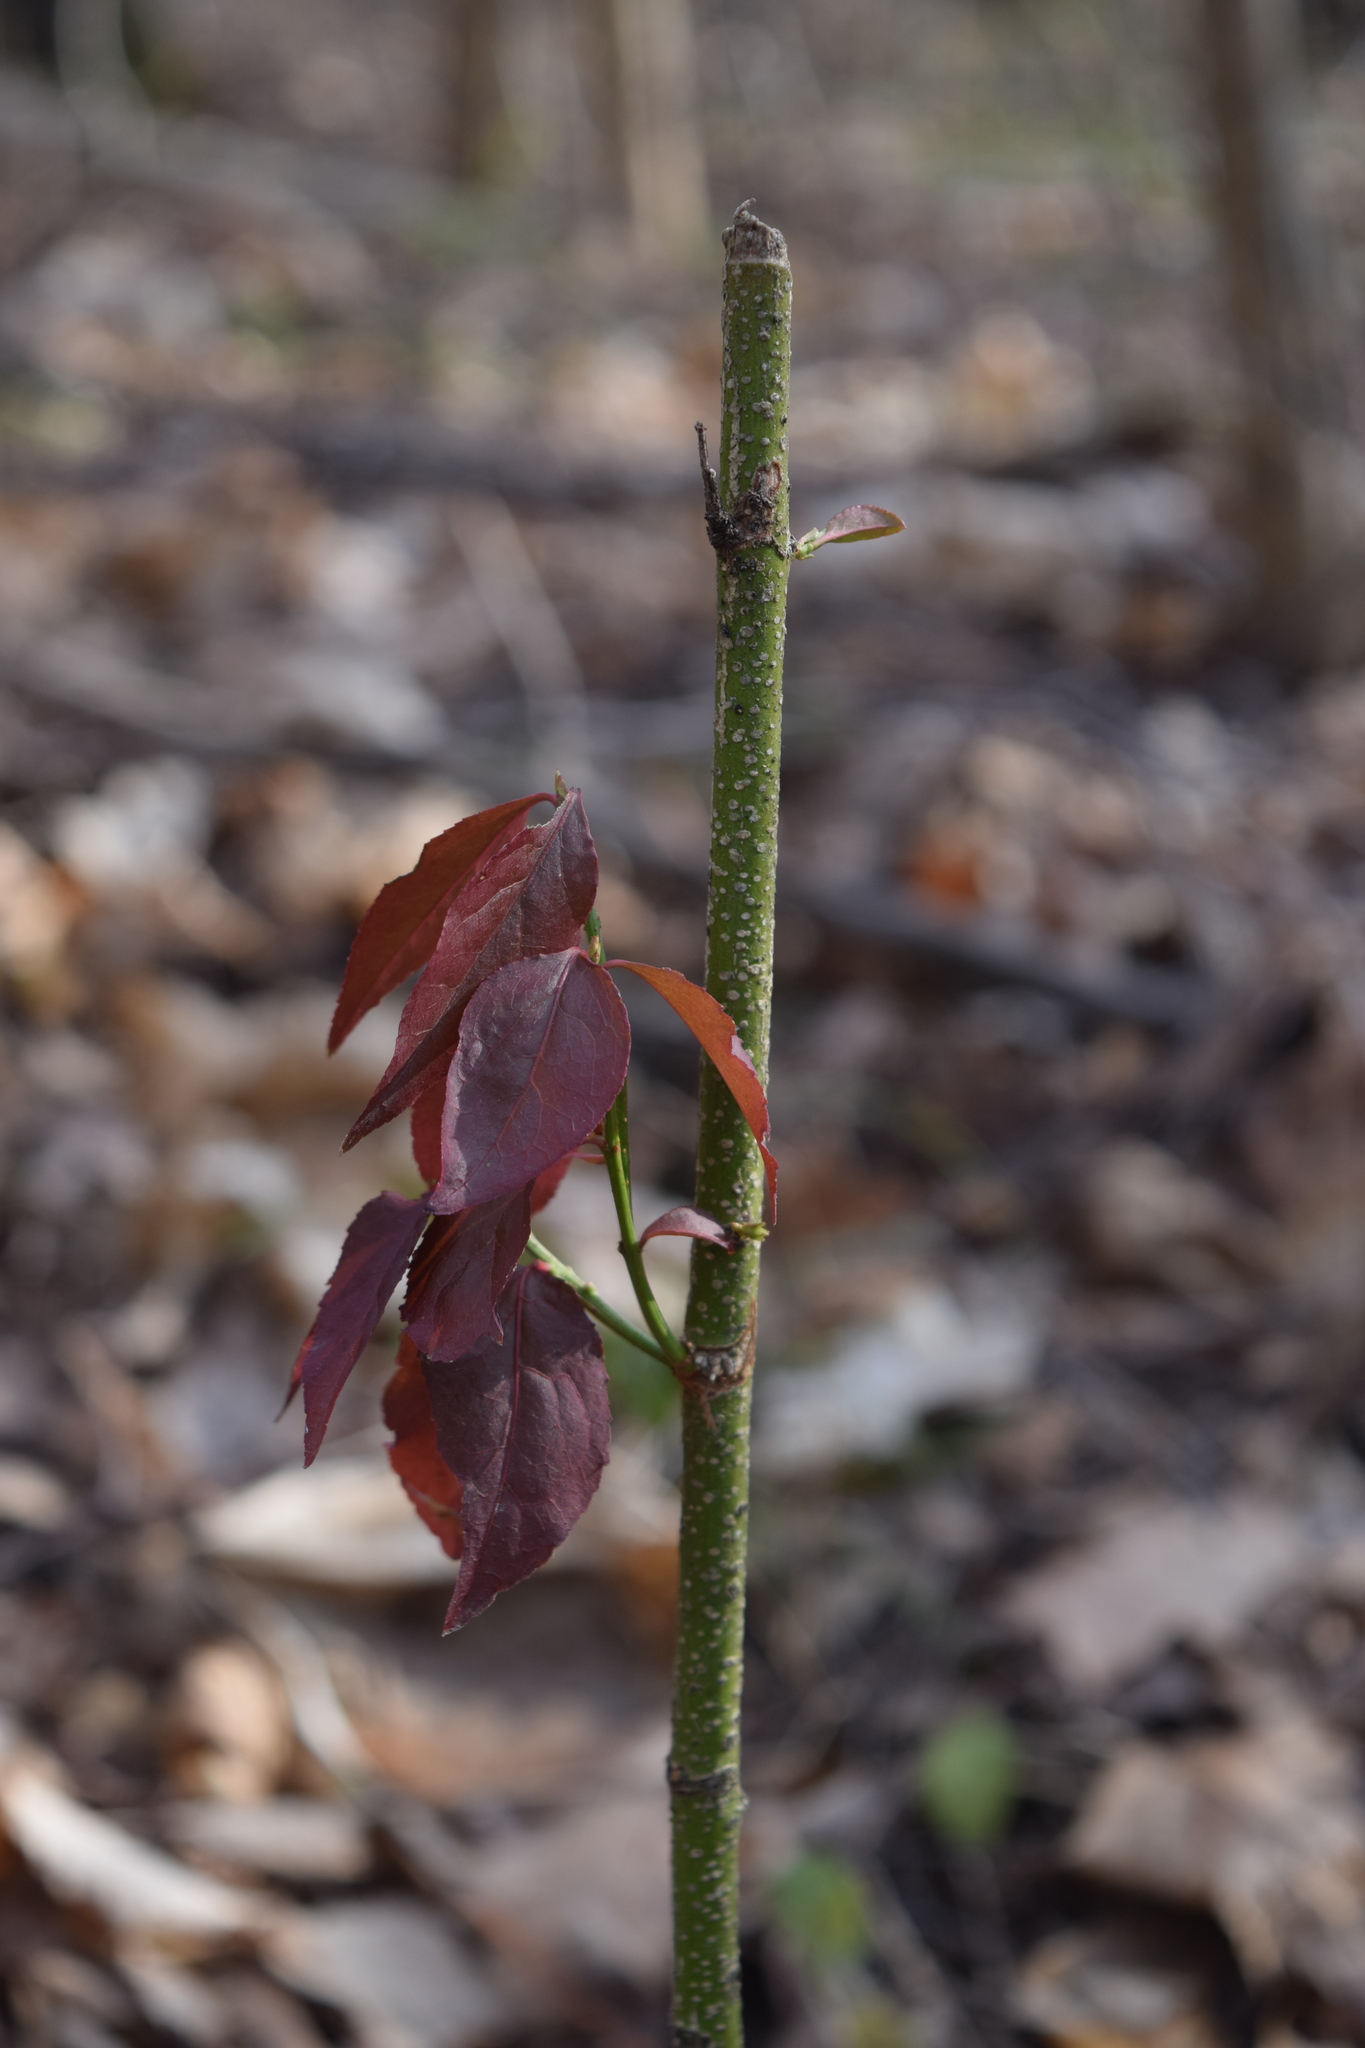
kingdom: Plantae
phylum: Tracheophyta
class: Magnoliopsida
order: Celastrales
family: Celastraceae
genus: Euonymus
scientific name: Euonymus verrucosus
